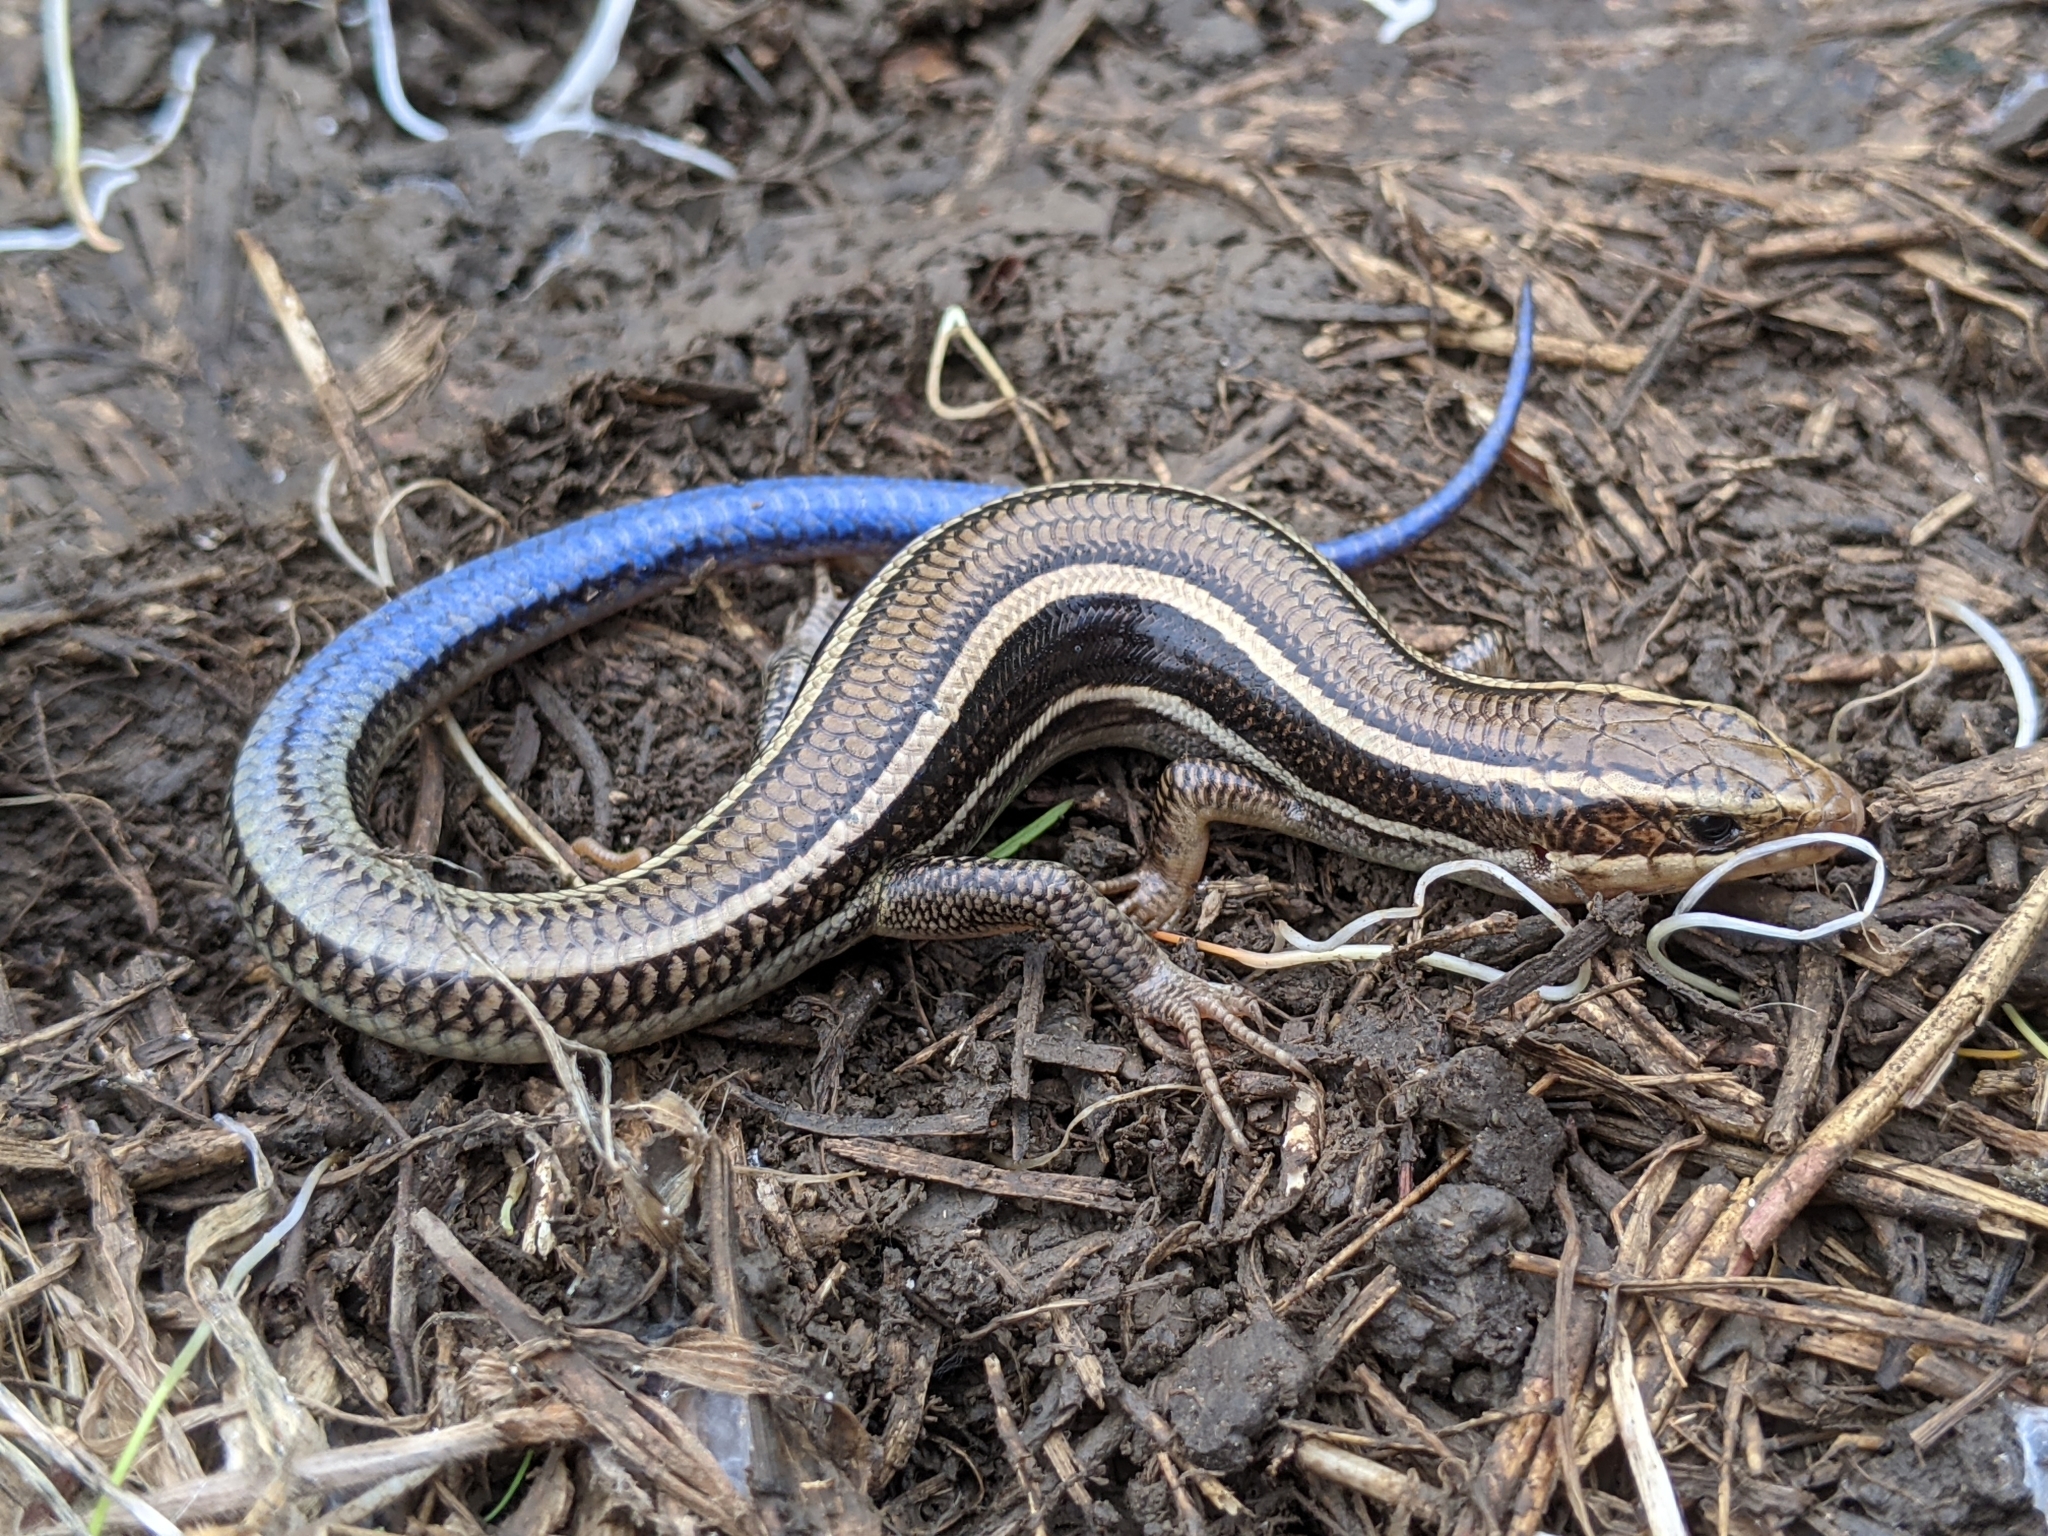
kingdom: Animalia
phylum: Chordata
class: Squamata
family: Scincidae
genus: Plestiodon
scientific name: Plestiodon skiltonianus
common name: Coronado island skink [interparietalis]
